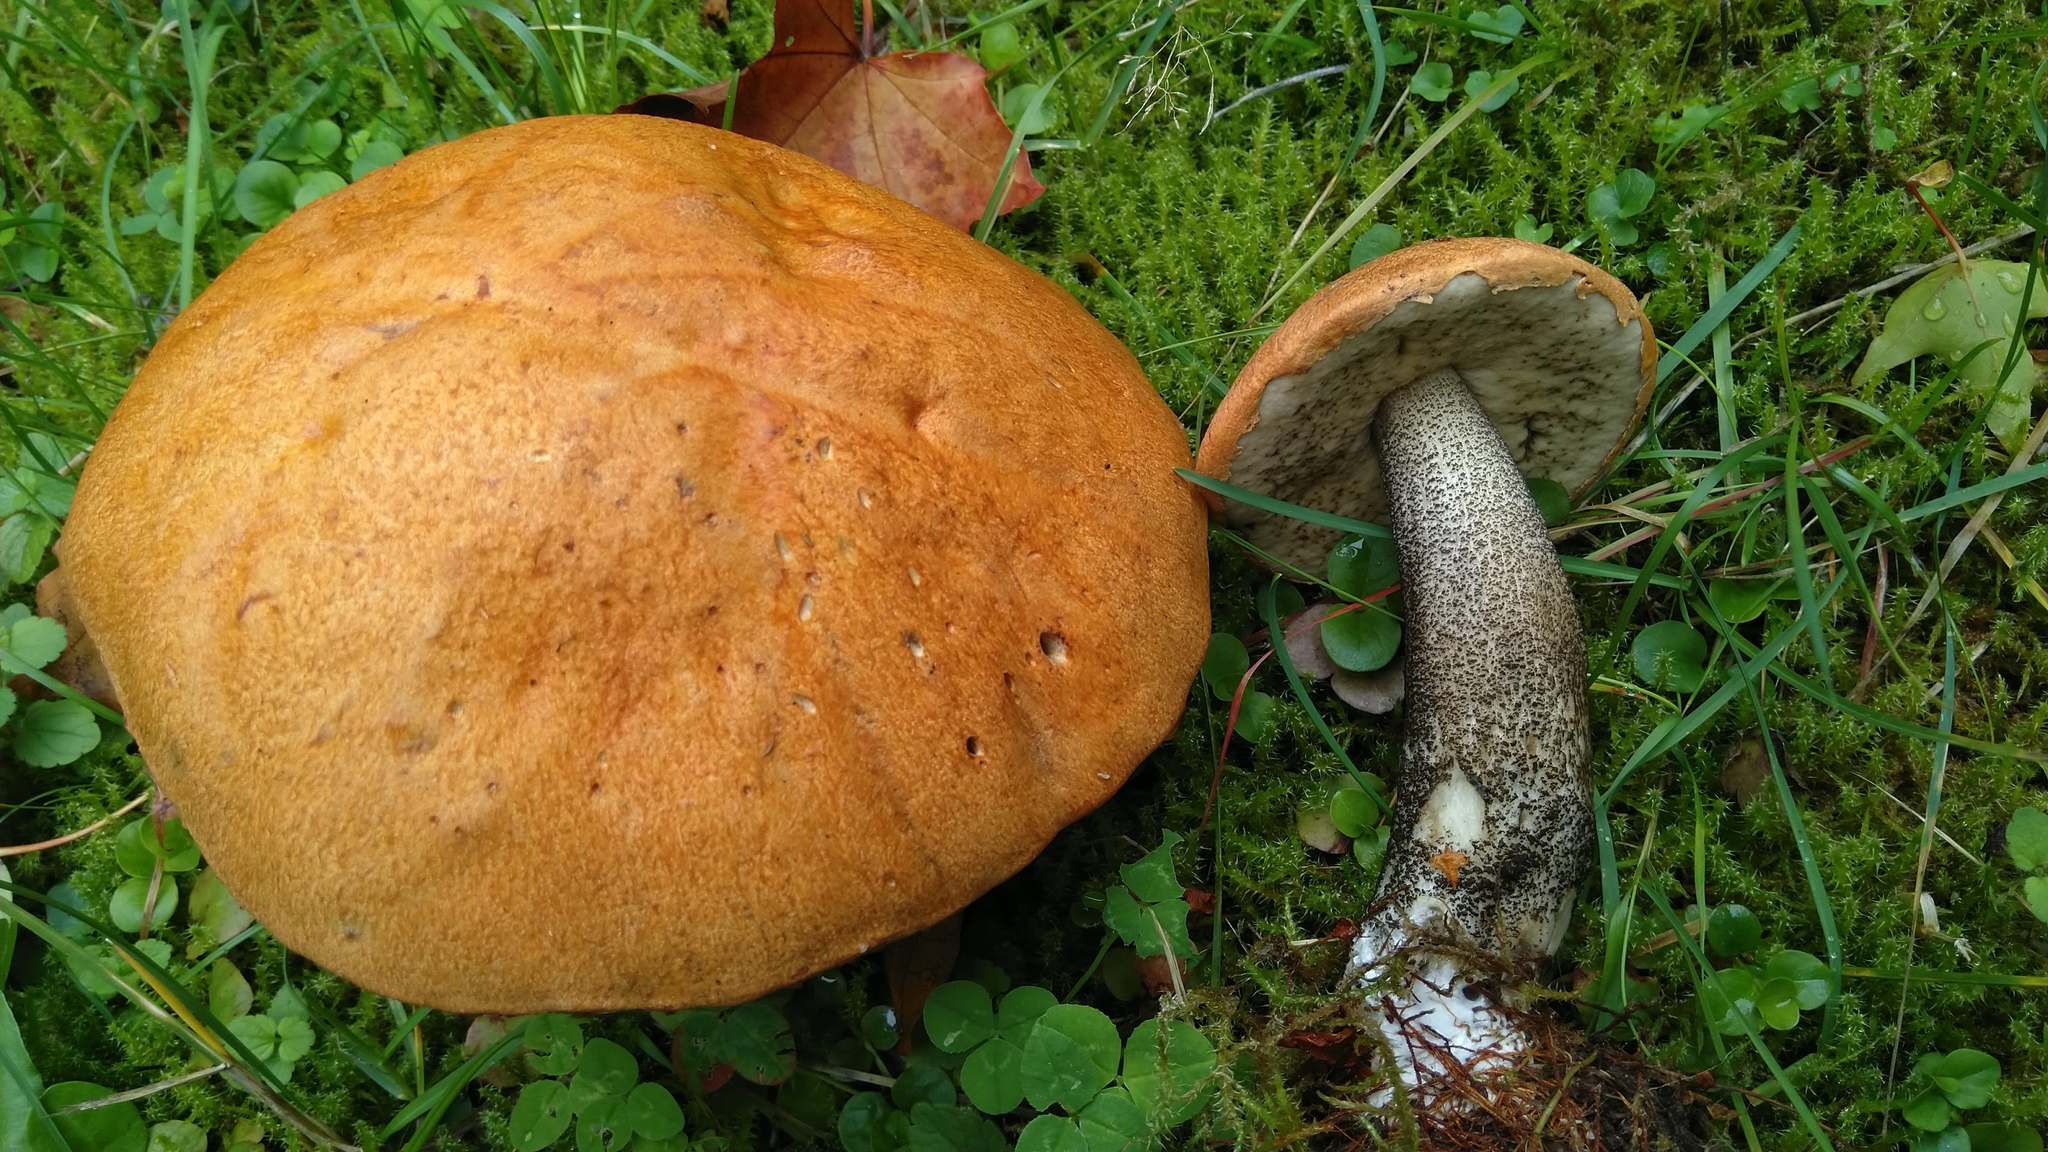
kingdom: Fungi
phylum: Basidiomycota
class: Agaricomycetes
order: Boletales
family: Boletaceae
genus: Leccinum
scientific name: Leccinum versipelle
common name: Orange birch bolete
